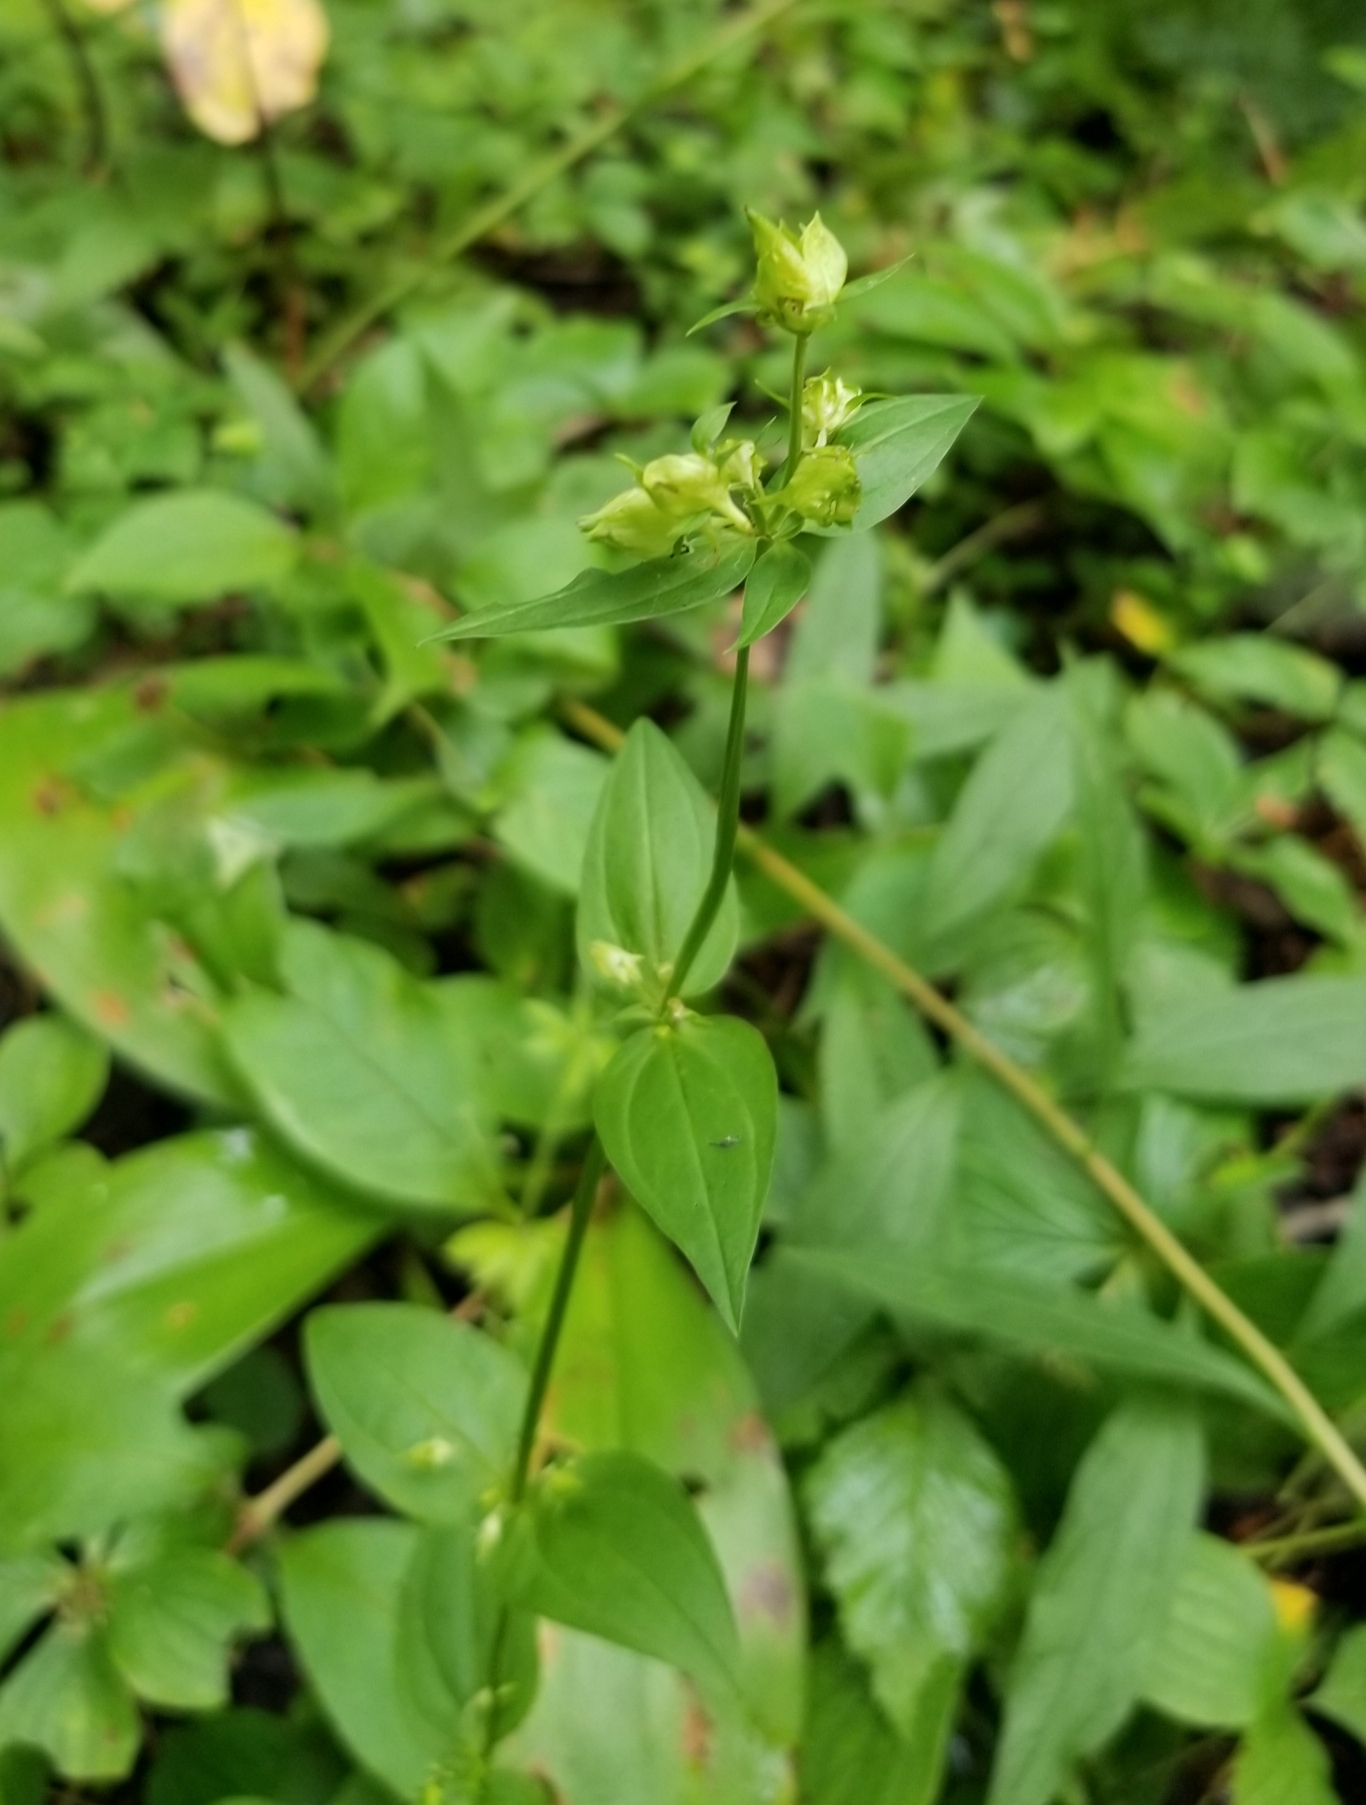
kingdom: Plantae
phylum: Tracheophyta
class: Magnoliopsida
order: Gentianales
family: Gentianaceae
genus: Halenia
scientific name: Halenia deflexa
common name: American spurred gentian
